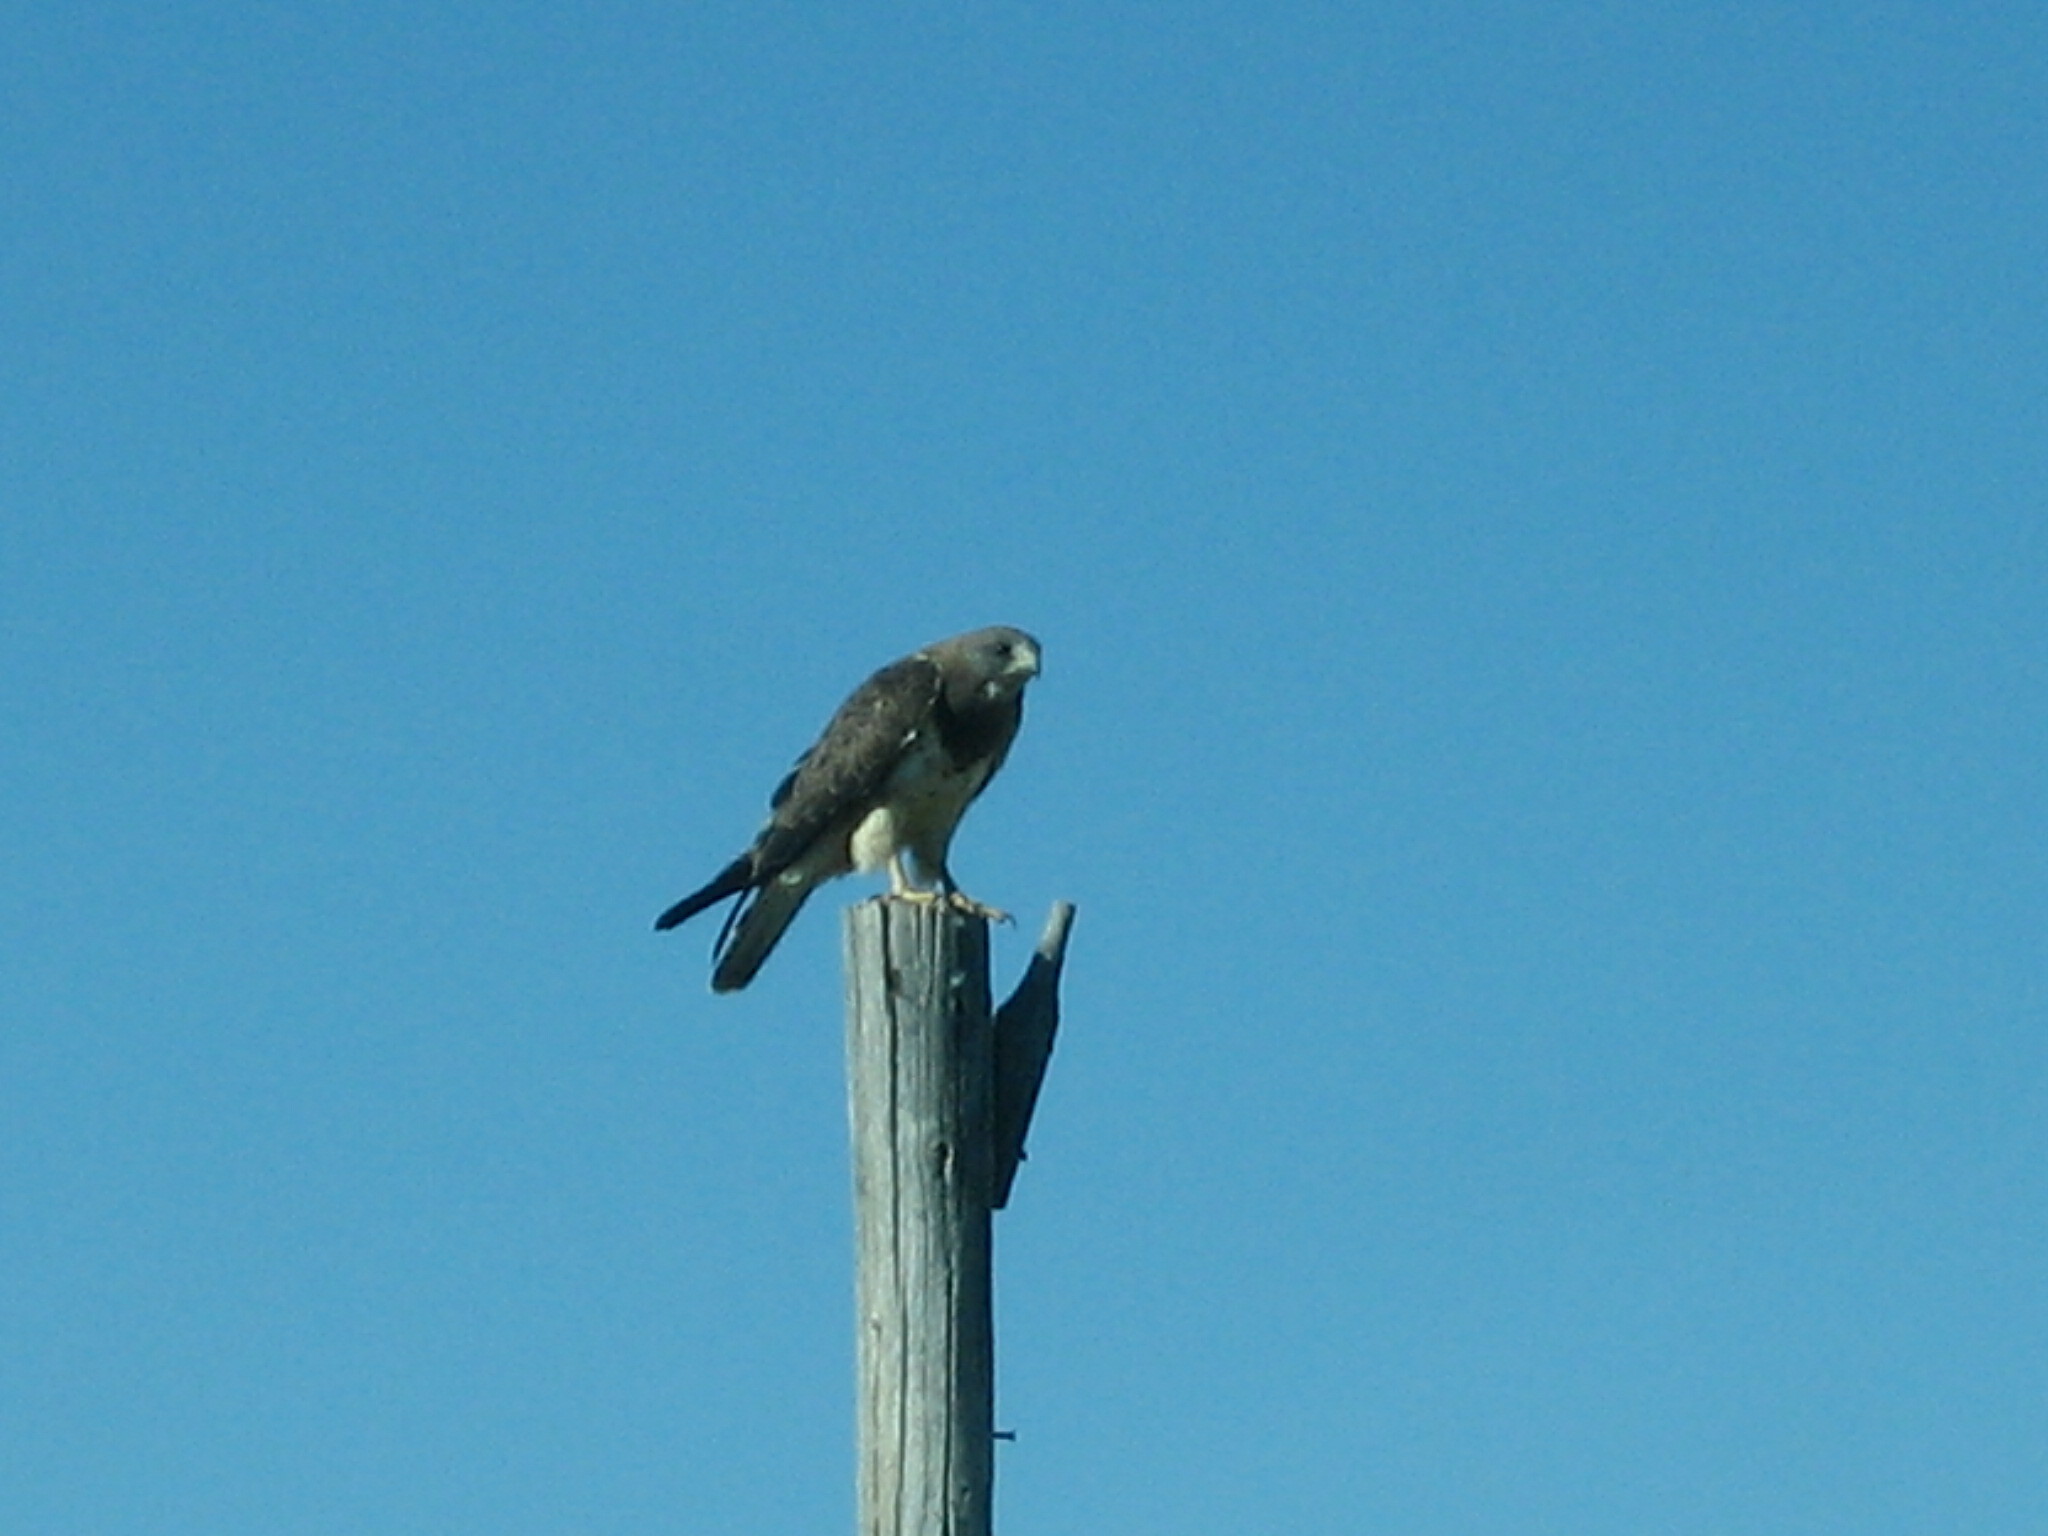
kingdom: Animalia
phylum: Chordata
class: Aves
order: Accipitriformes
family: Accipitridae
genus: Buteo
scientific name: Buteo swainsoni
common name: Swainson's hawk
